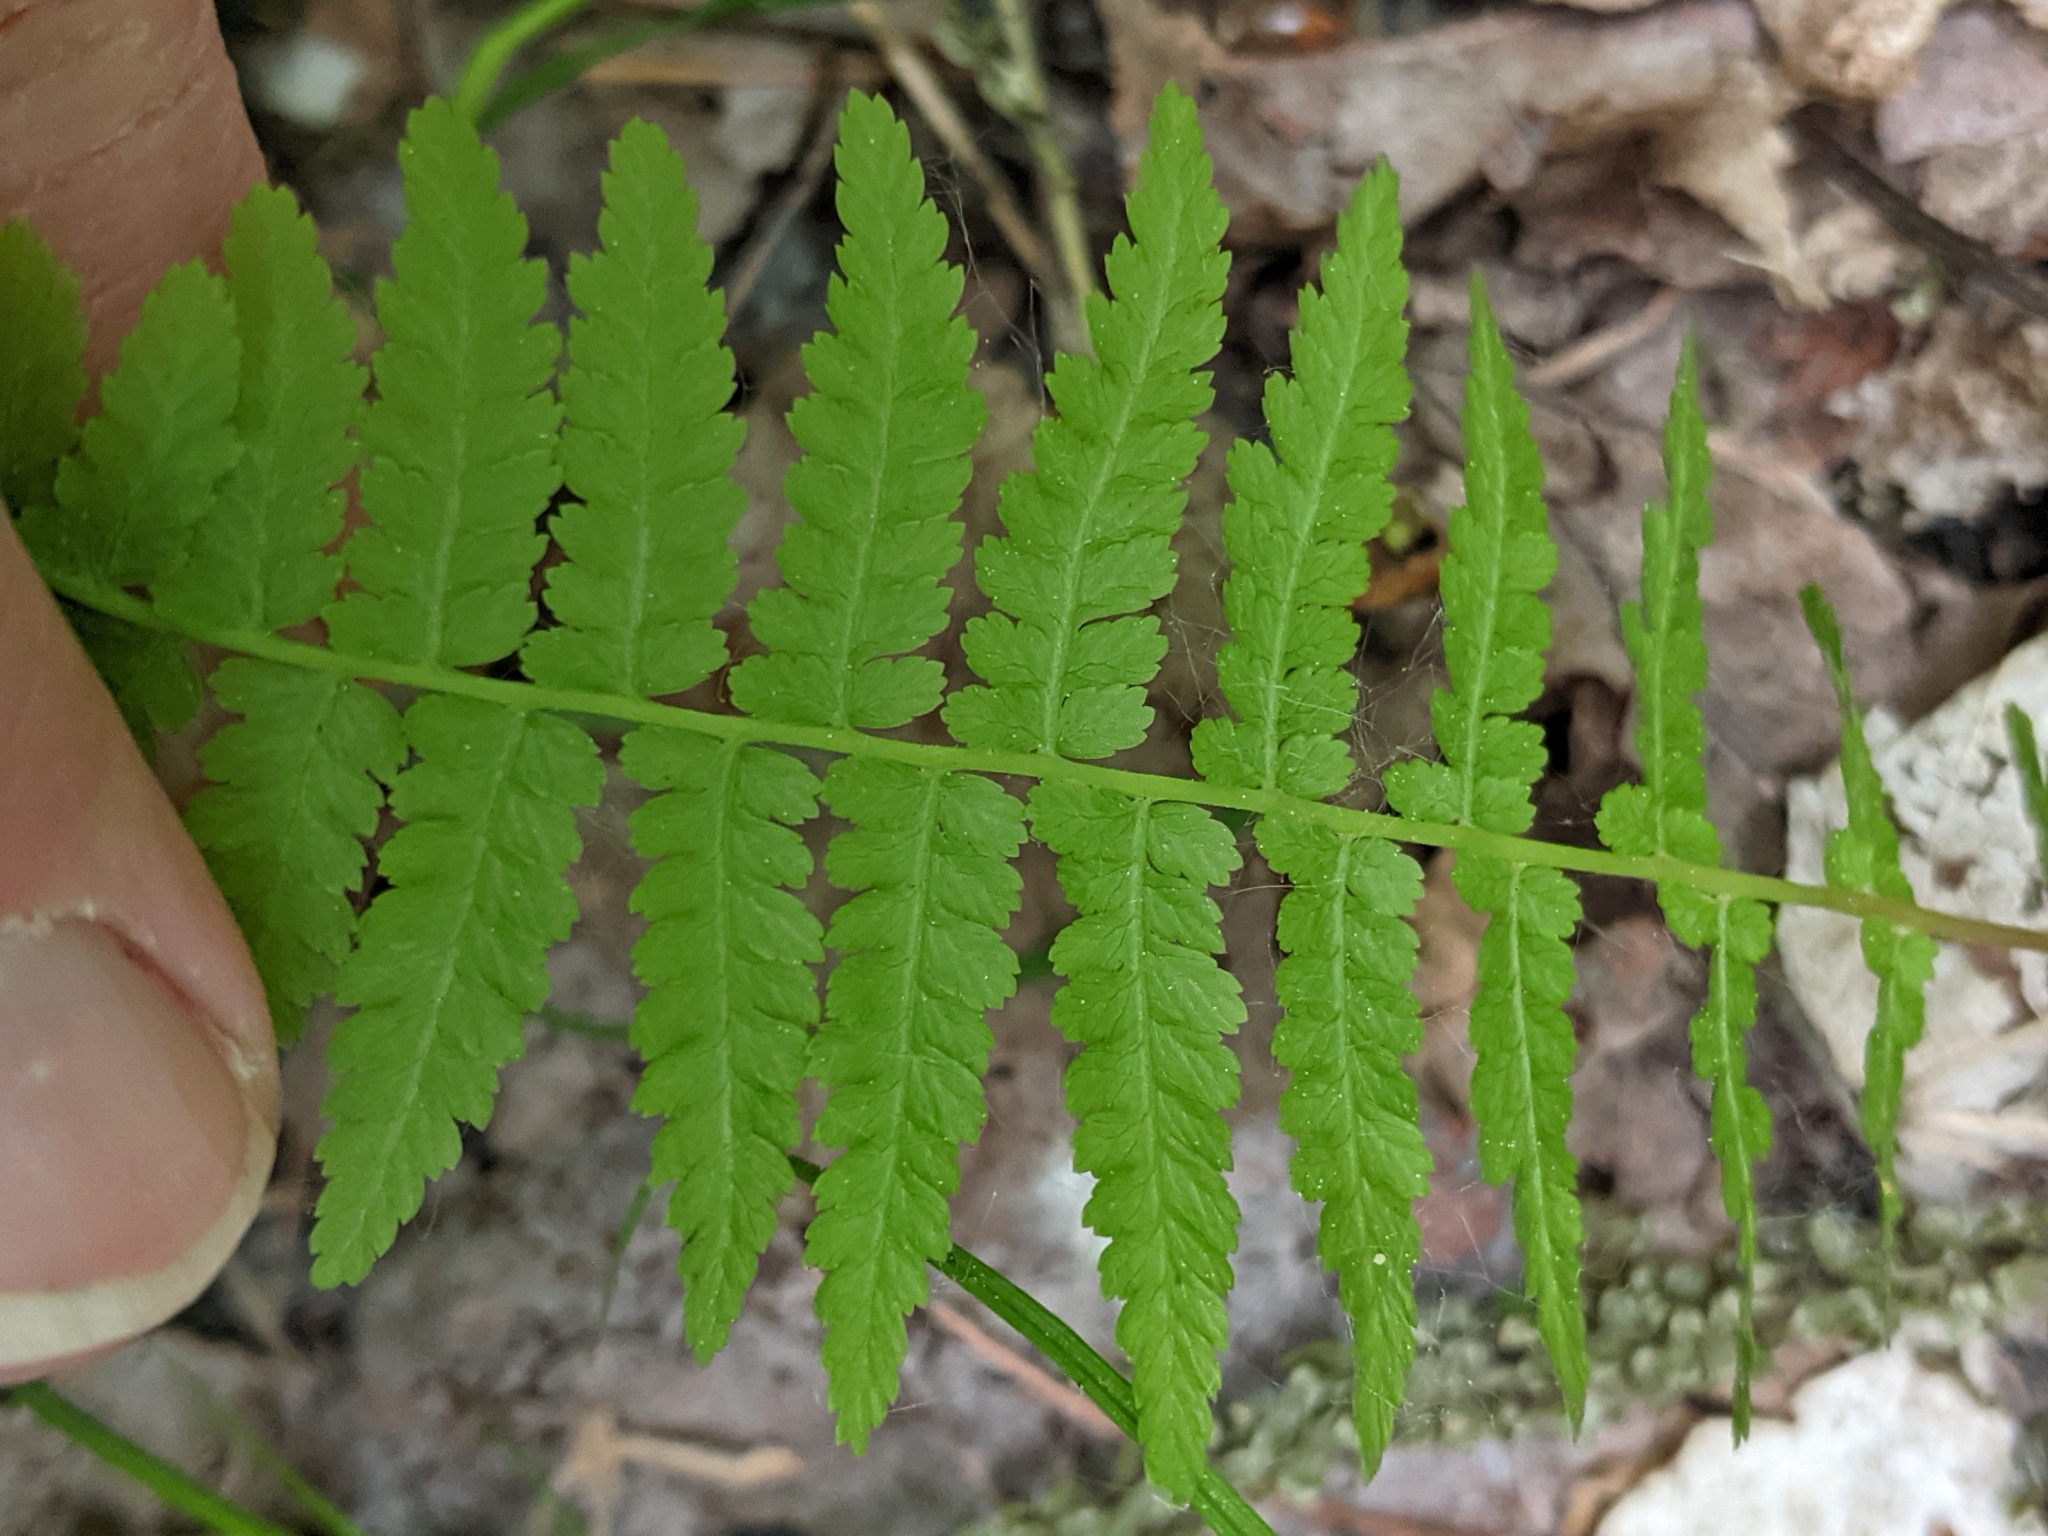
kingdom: Plantae
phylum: Tracheophyta
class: Polypodiopsida
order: Polypodiales
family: Athyriaceae
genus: Athyrium
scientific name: Athyrium angustum
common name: Northern lady fern
